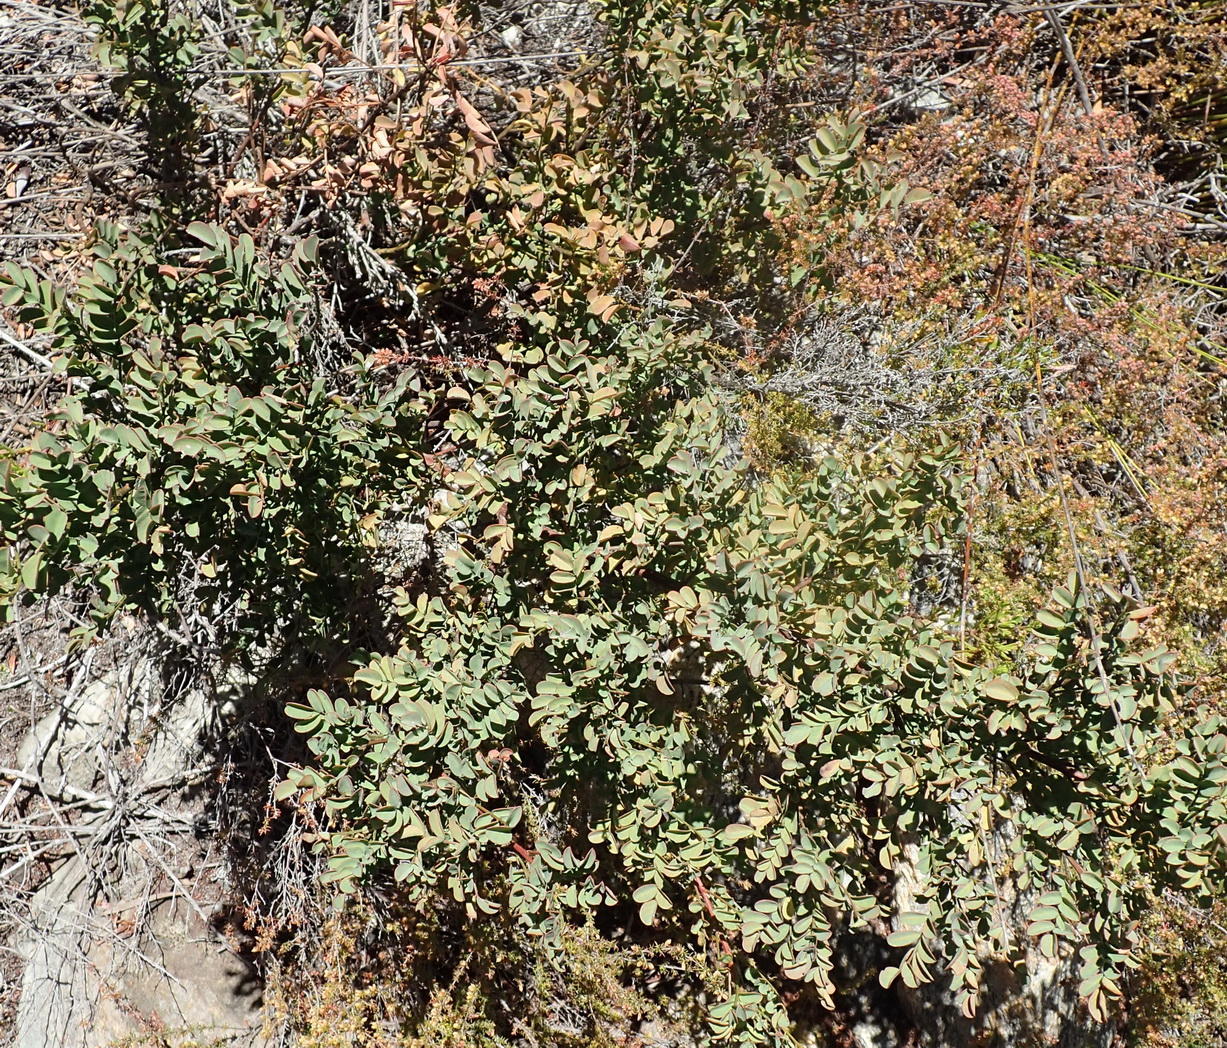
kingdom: Plantae
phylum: Tracheophyta
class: Magnoliopsida
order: Fabales
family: Fabaceae
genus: Indigofera
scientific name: Indigofera langebergensis
